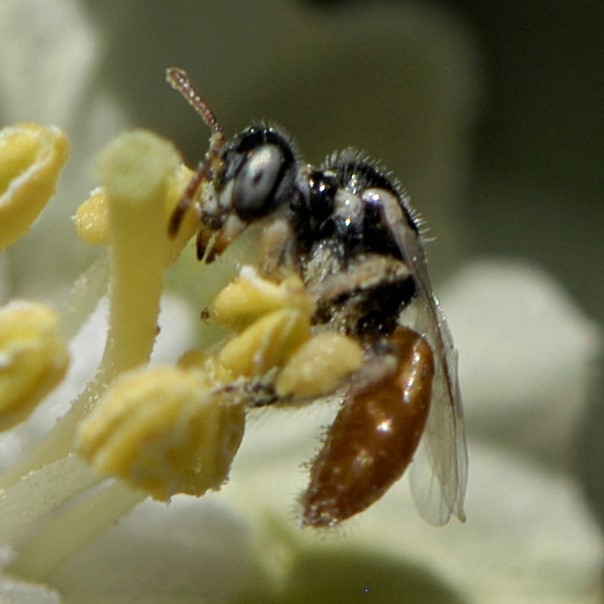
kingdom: Animalia
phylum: Arthropoda
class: Insecta
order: Hymenoptera
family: Andrenidae
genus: Perdita
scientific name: Perdita chamaesarachae
